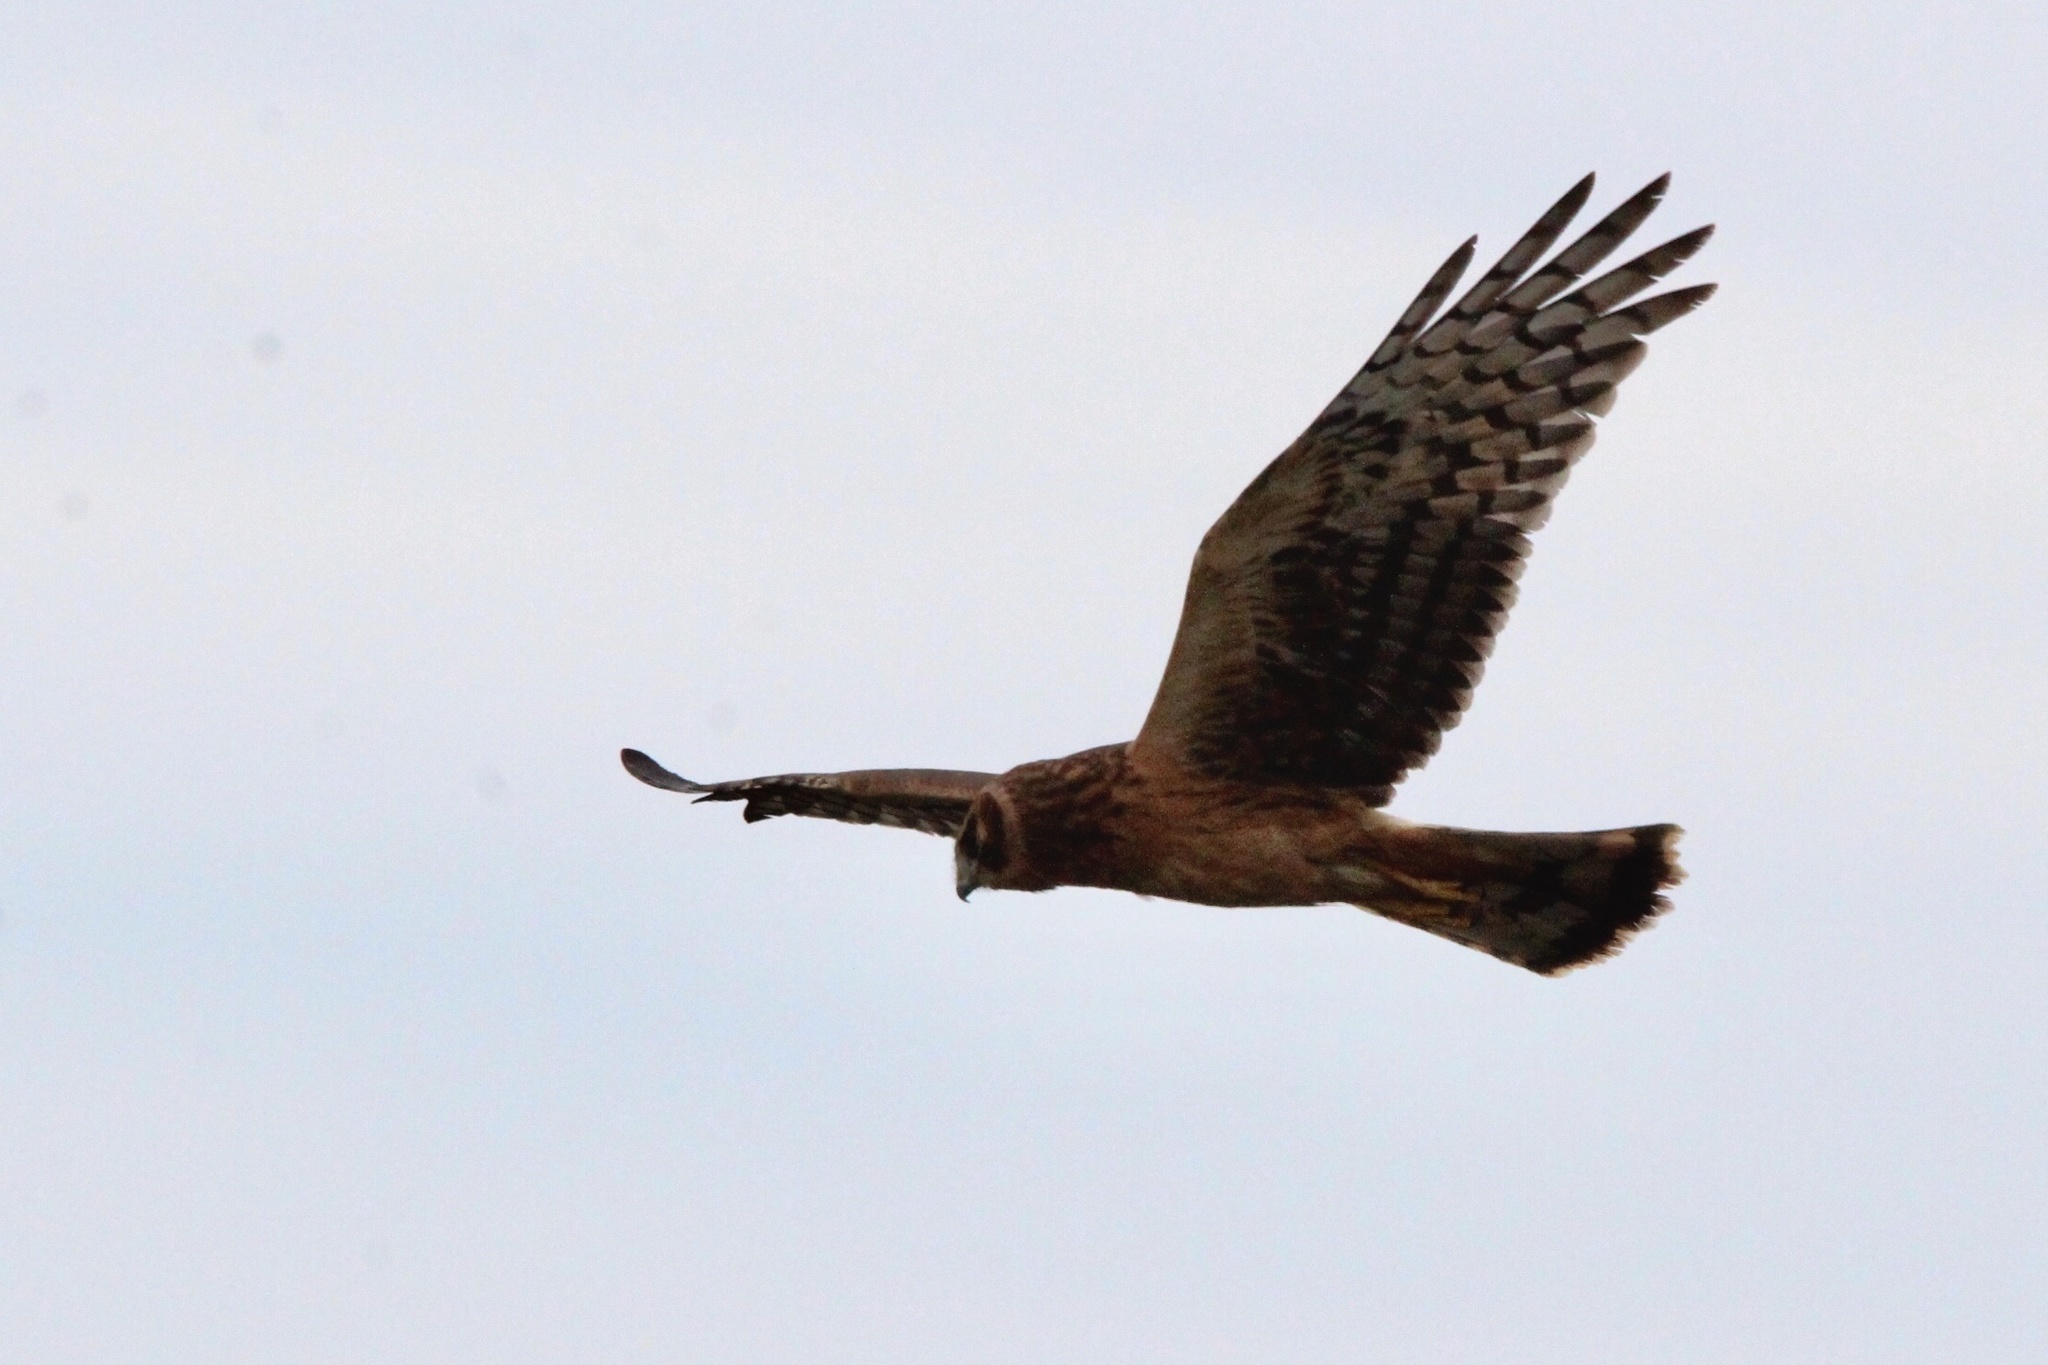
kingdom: Animalia
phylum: Chordata
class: Aves
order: Accipitriformes
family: Accipitridae
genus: Circus
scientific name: Circus cyaneus
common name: Hen harrier
